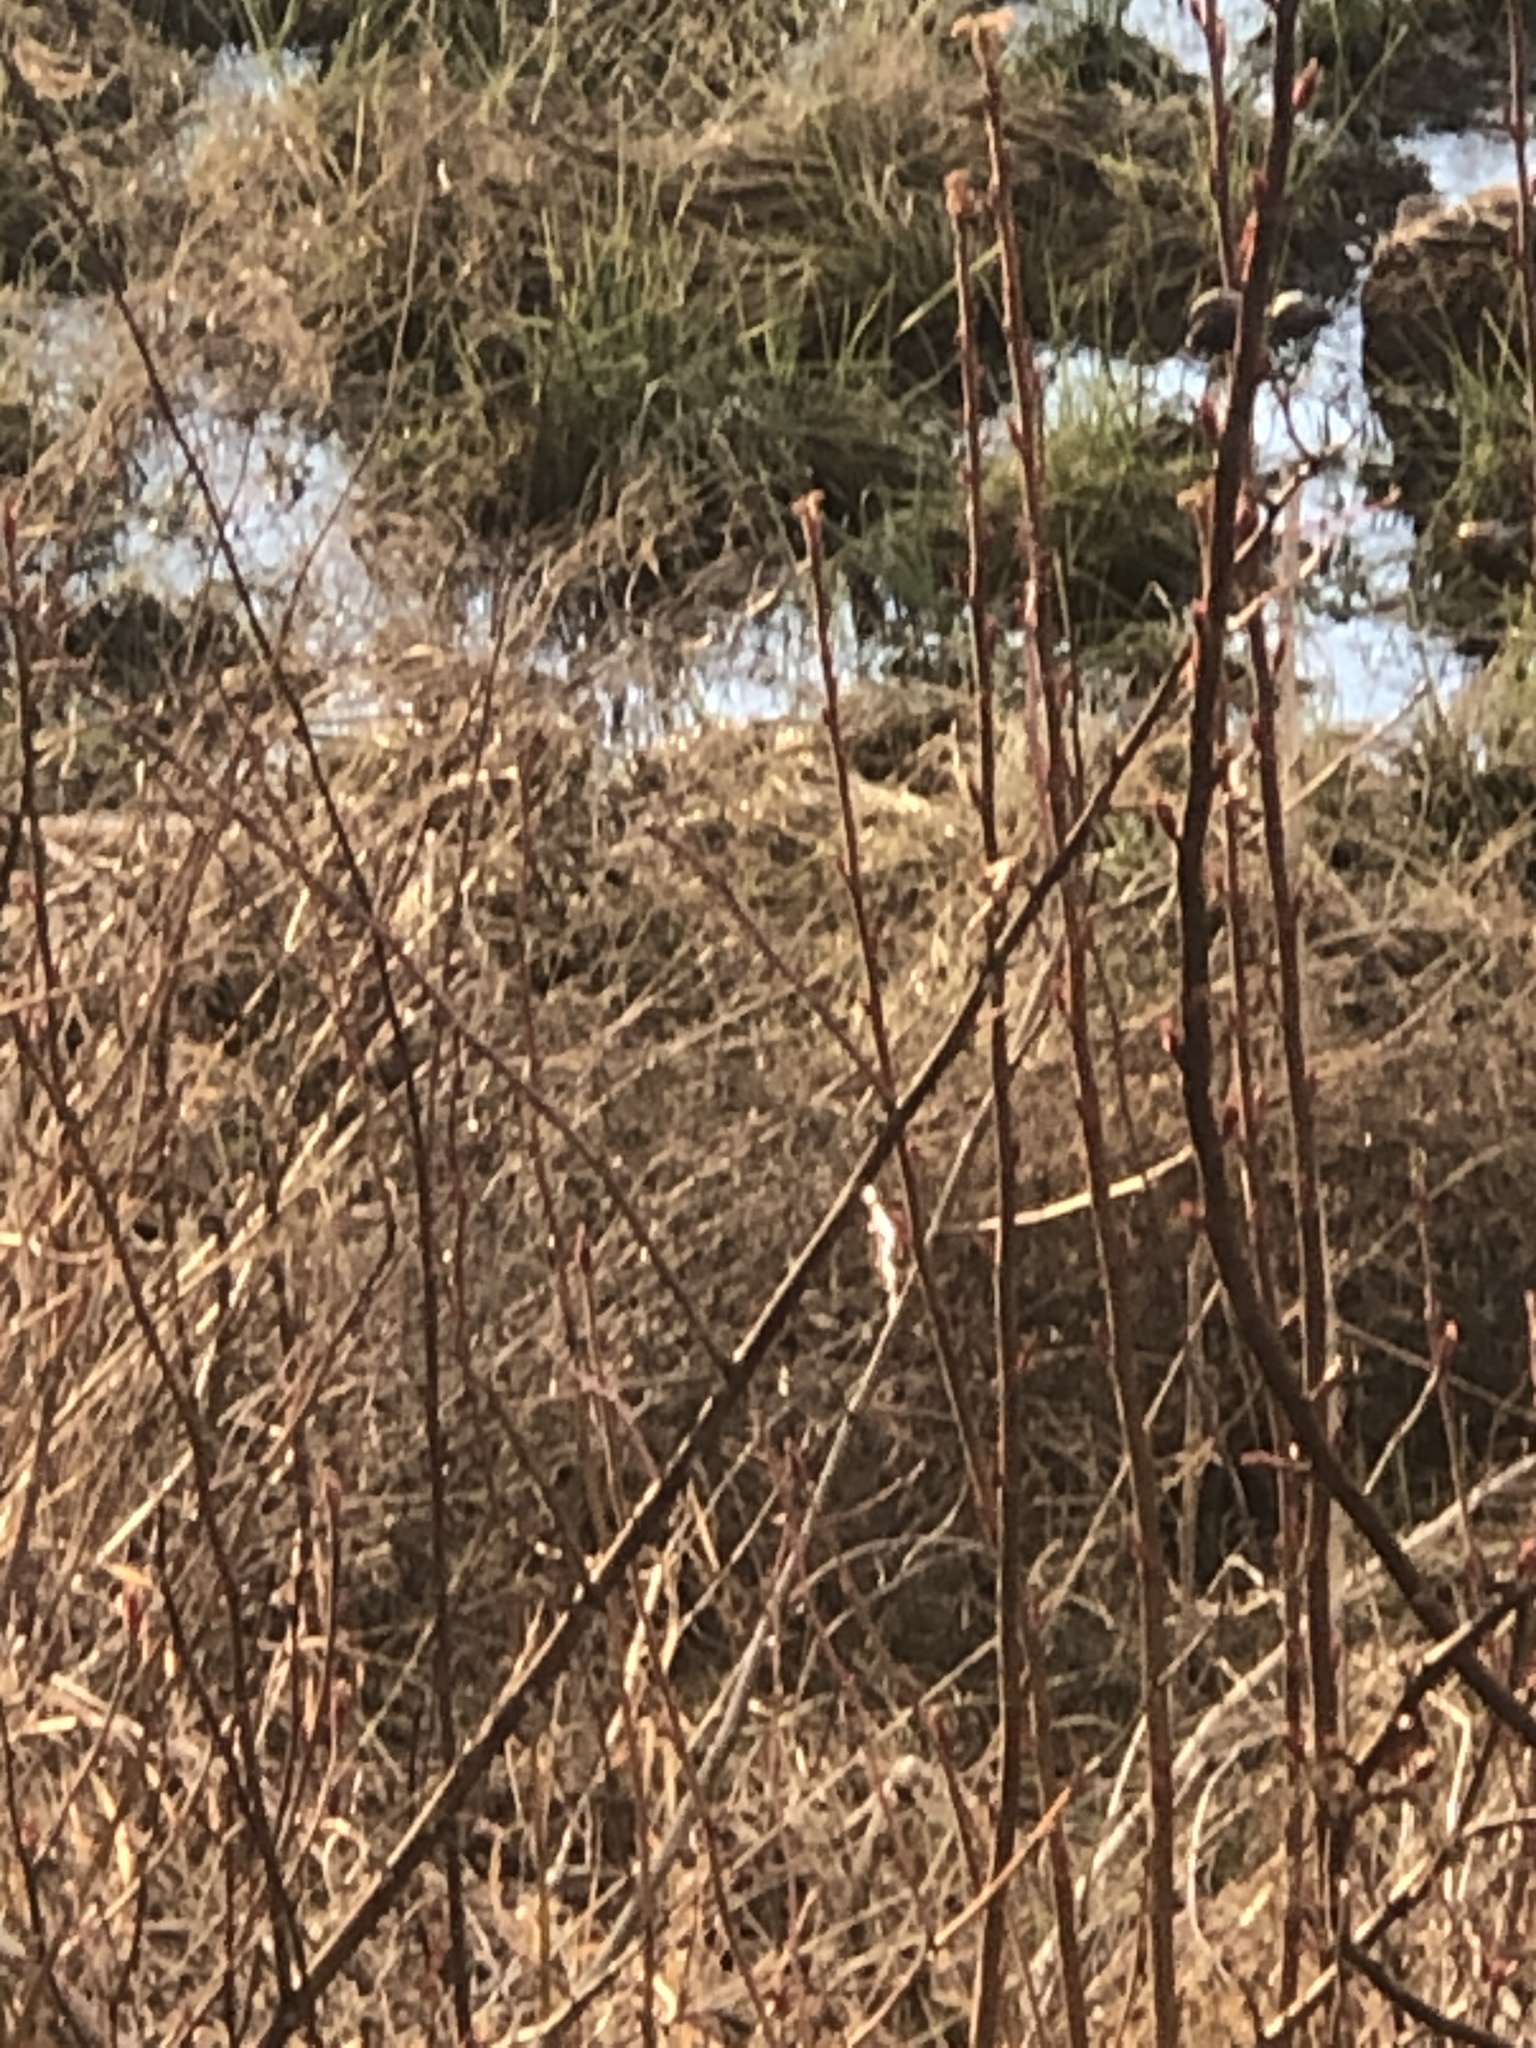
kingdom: Animalia
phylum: Chordata
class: Aves
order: Anseriformes
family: Anatidae
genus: Anas
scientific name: Anas platyrhynchos
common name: Mallard
